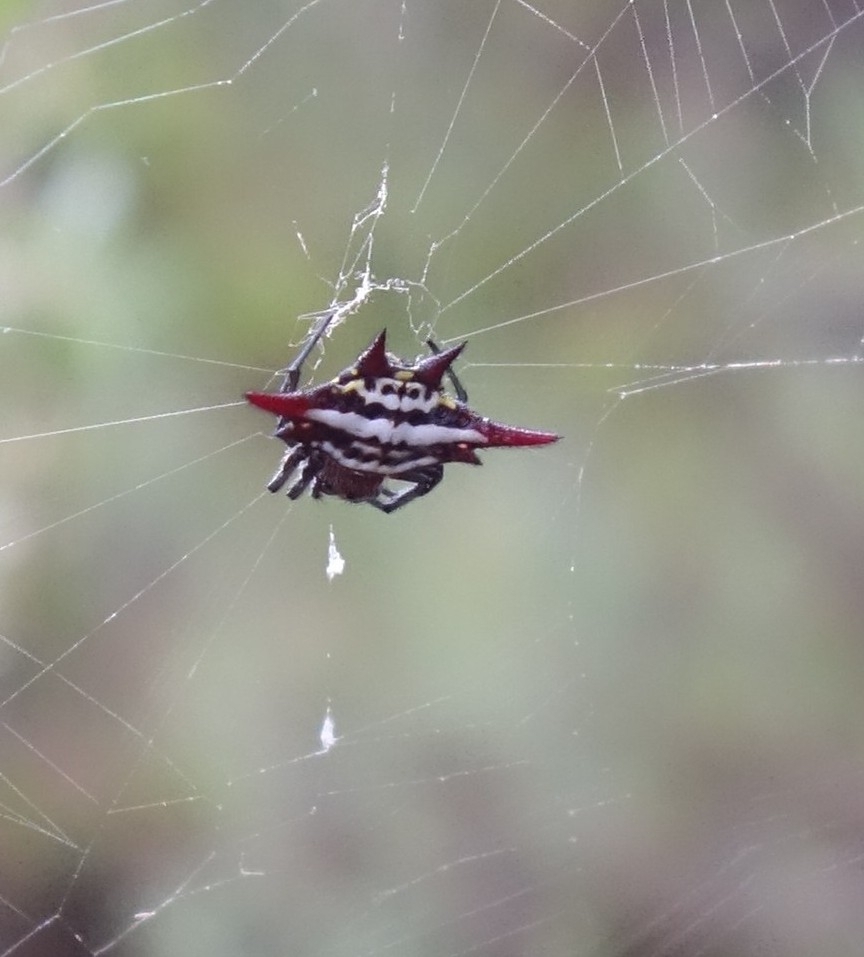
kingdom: Animalia
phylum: Arthropoda
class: Arachnida
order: Araneae
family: Araneidae
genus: Gasteracantha
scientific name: Gasteracantha sanguinolenta
